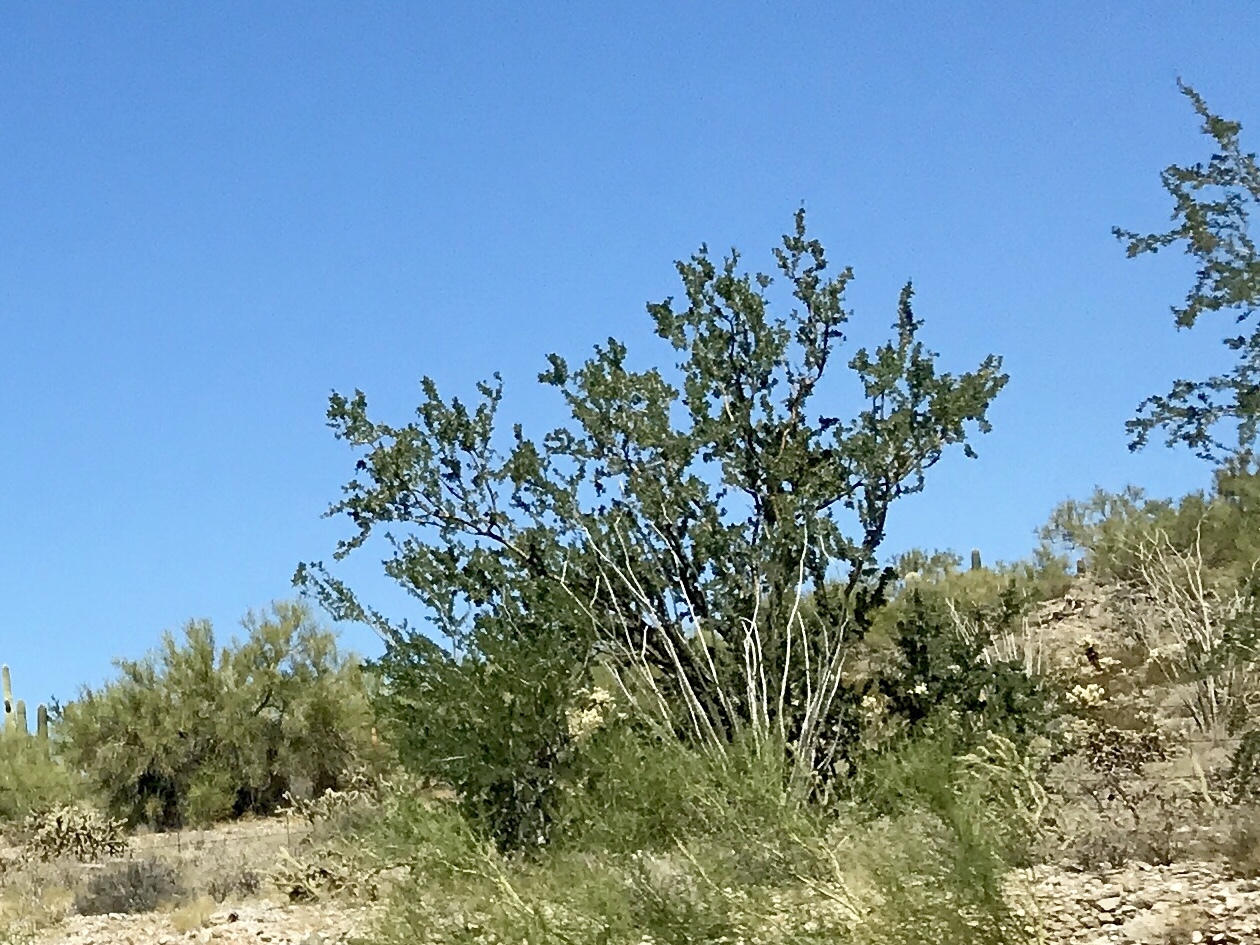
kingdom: Plantae
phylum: Tracheophyta
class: Magnoliopsida
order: Fabales
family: Fabaceae
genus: Olneya
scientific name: Olneya tesota
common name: Desert ironwood
